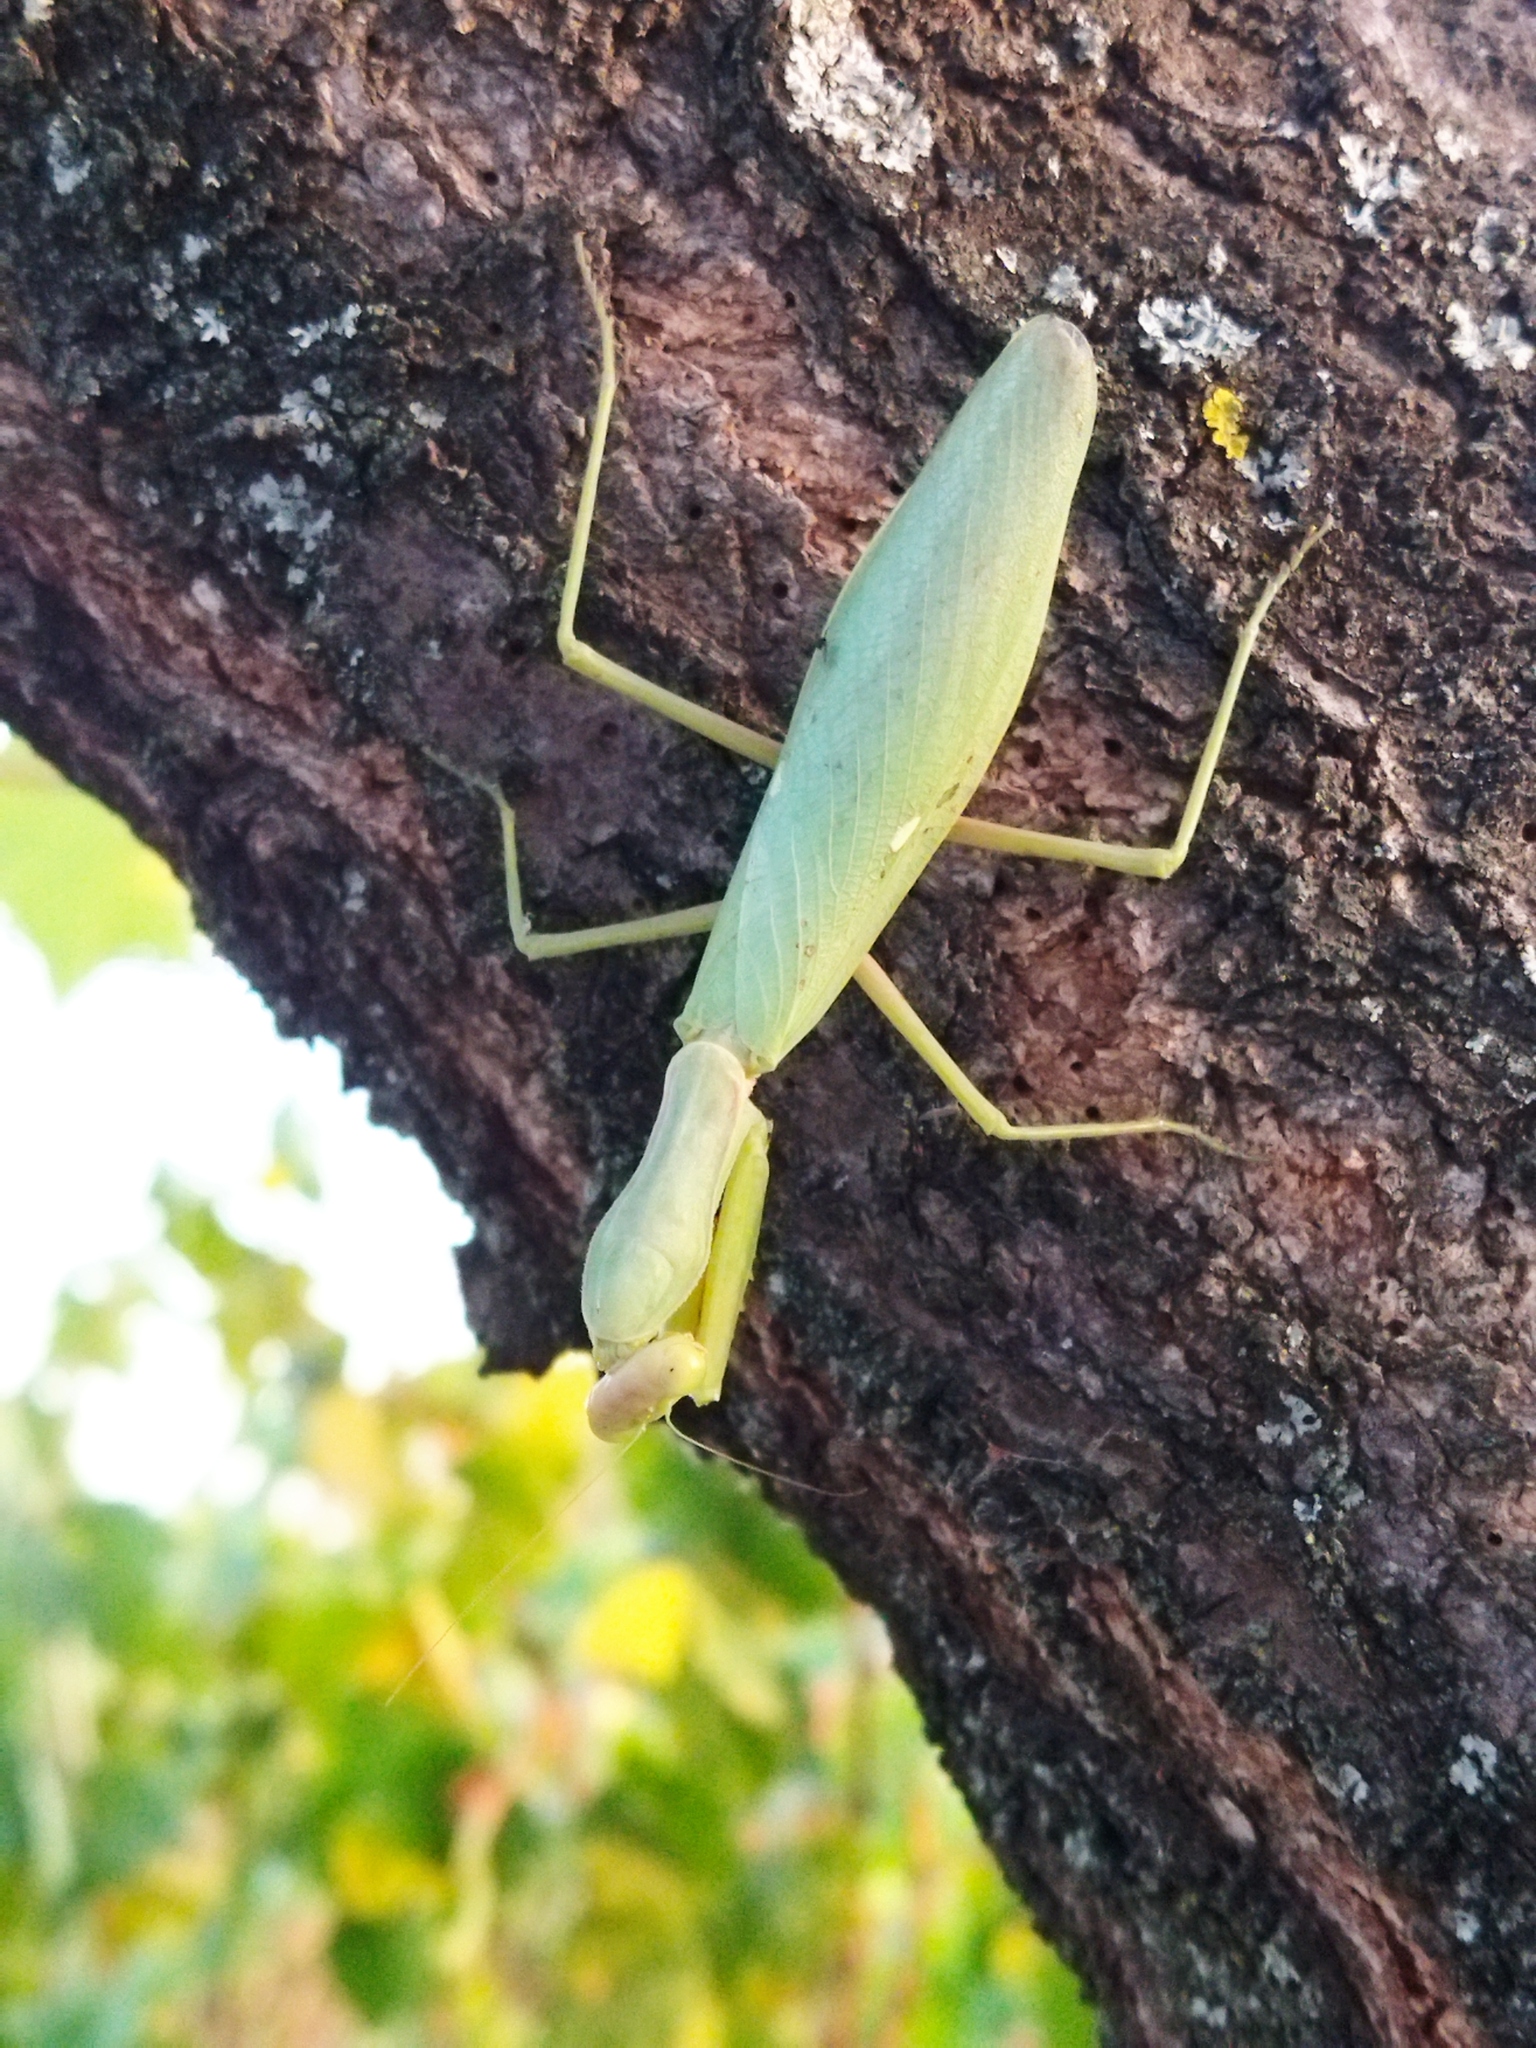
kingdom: Animalia
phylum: Arthropoda
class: Insecta
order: Mantodea
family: Mantidae
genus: Hierodula
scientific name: Hierodula transcaucasica
